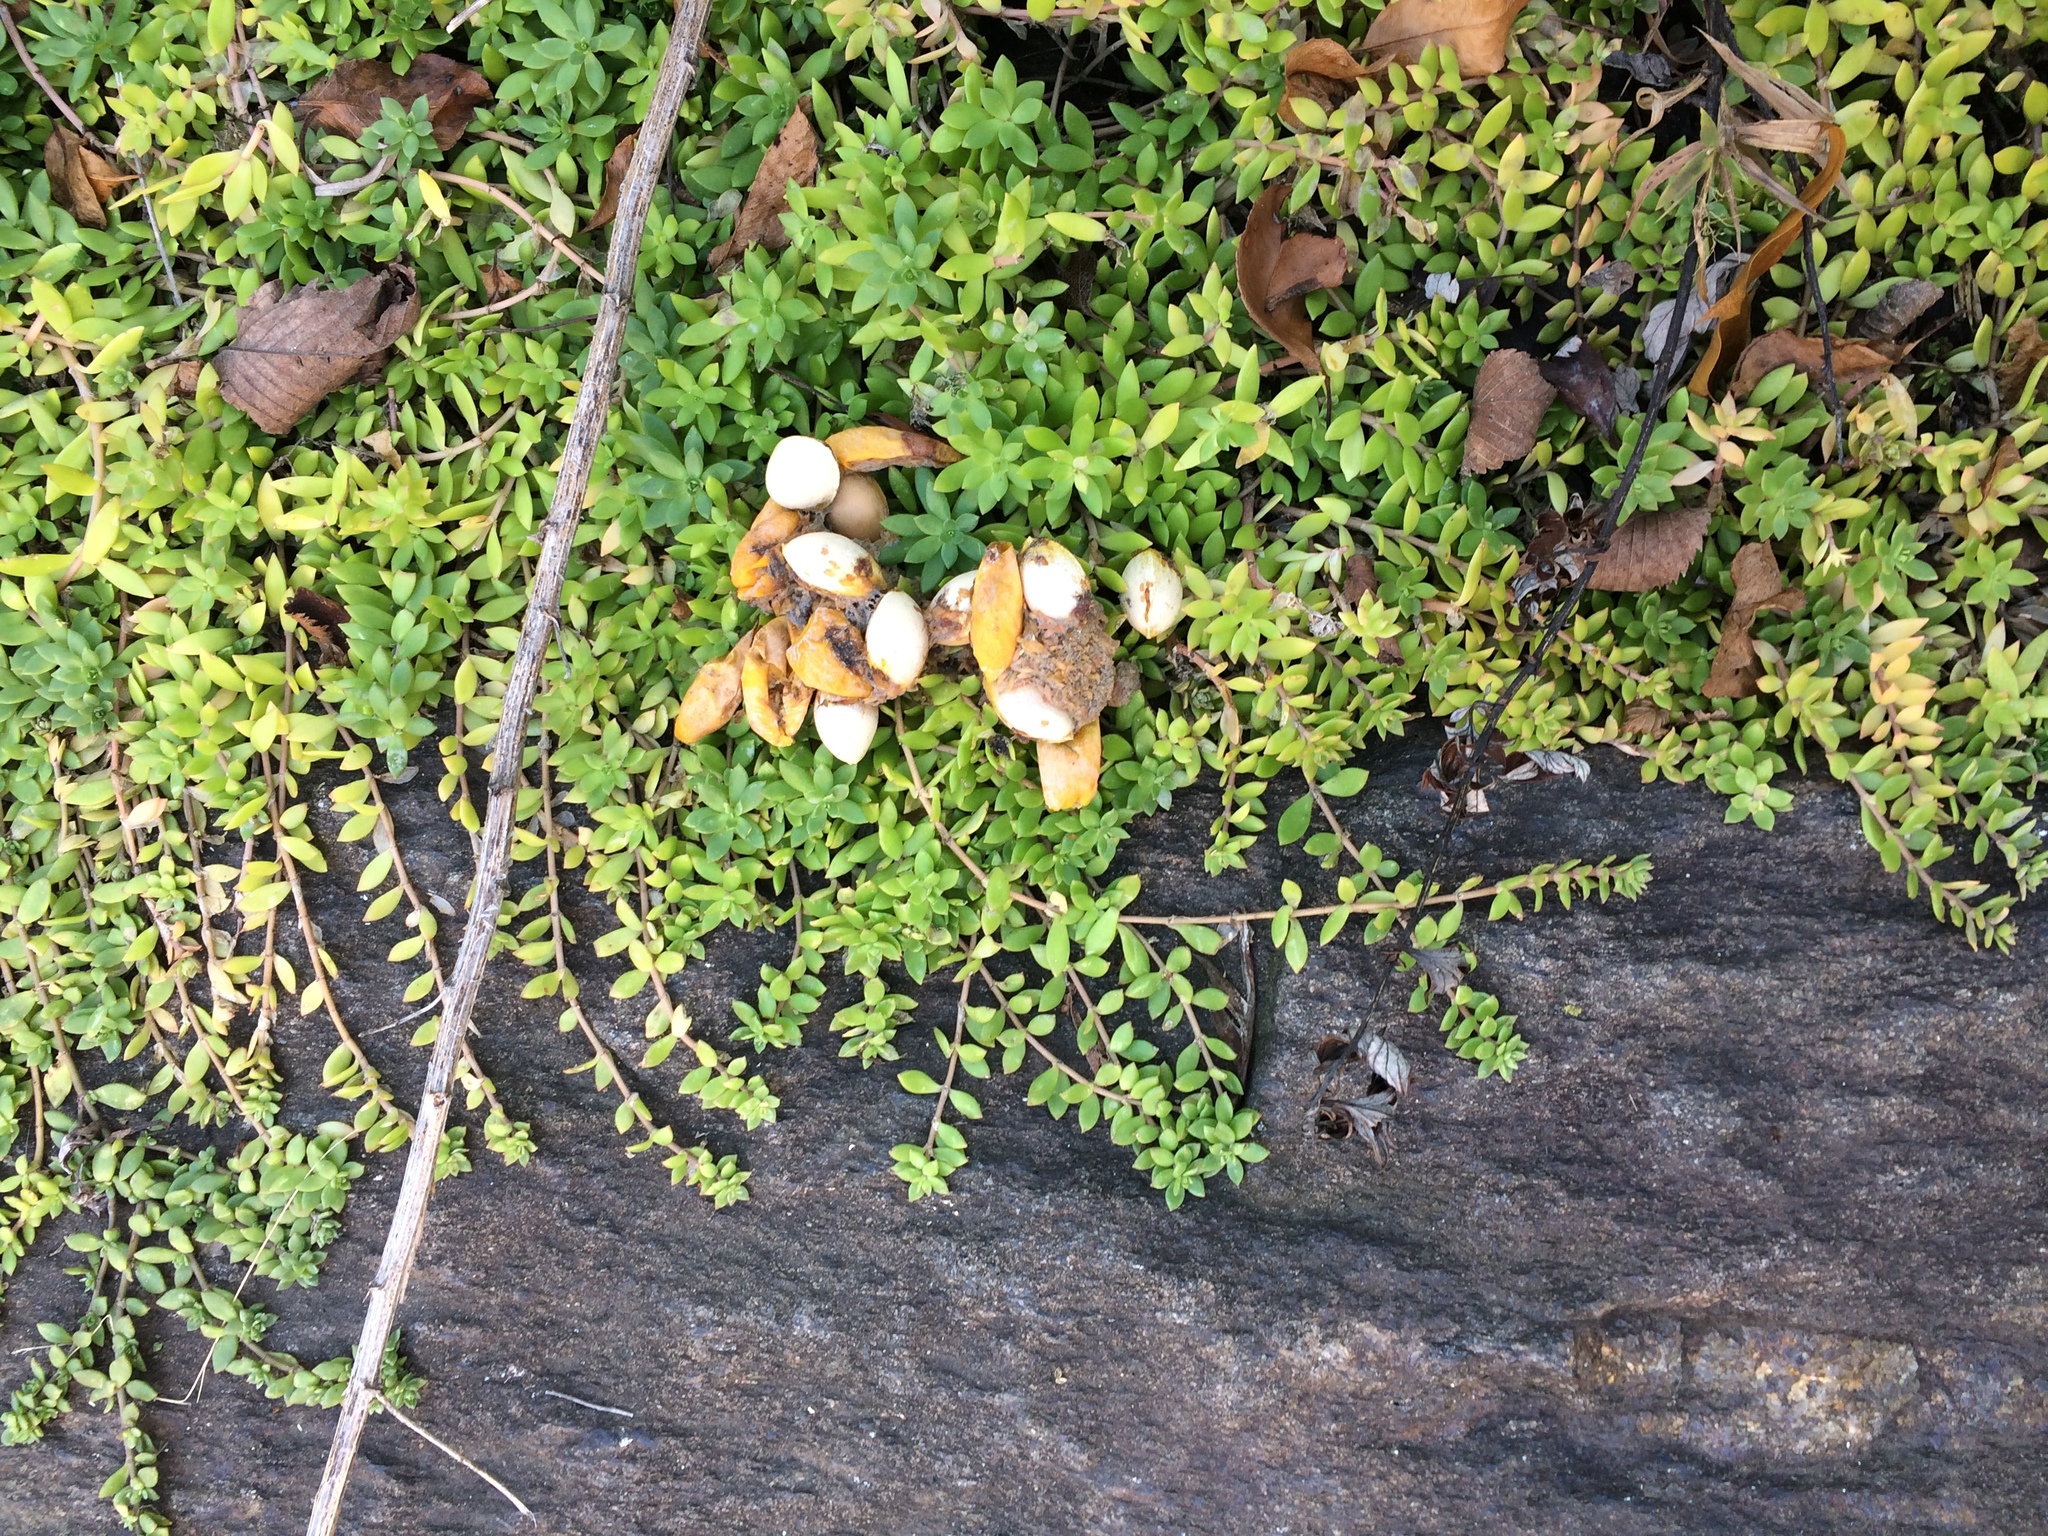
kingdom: Plantae
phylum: Tracheophyta
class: Magnoliopsida
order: Saxifragales
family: Crassulaceae
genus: Sedum
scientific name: Sedum sarmentosum
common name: Stringy stonecrop
